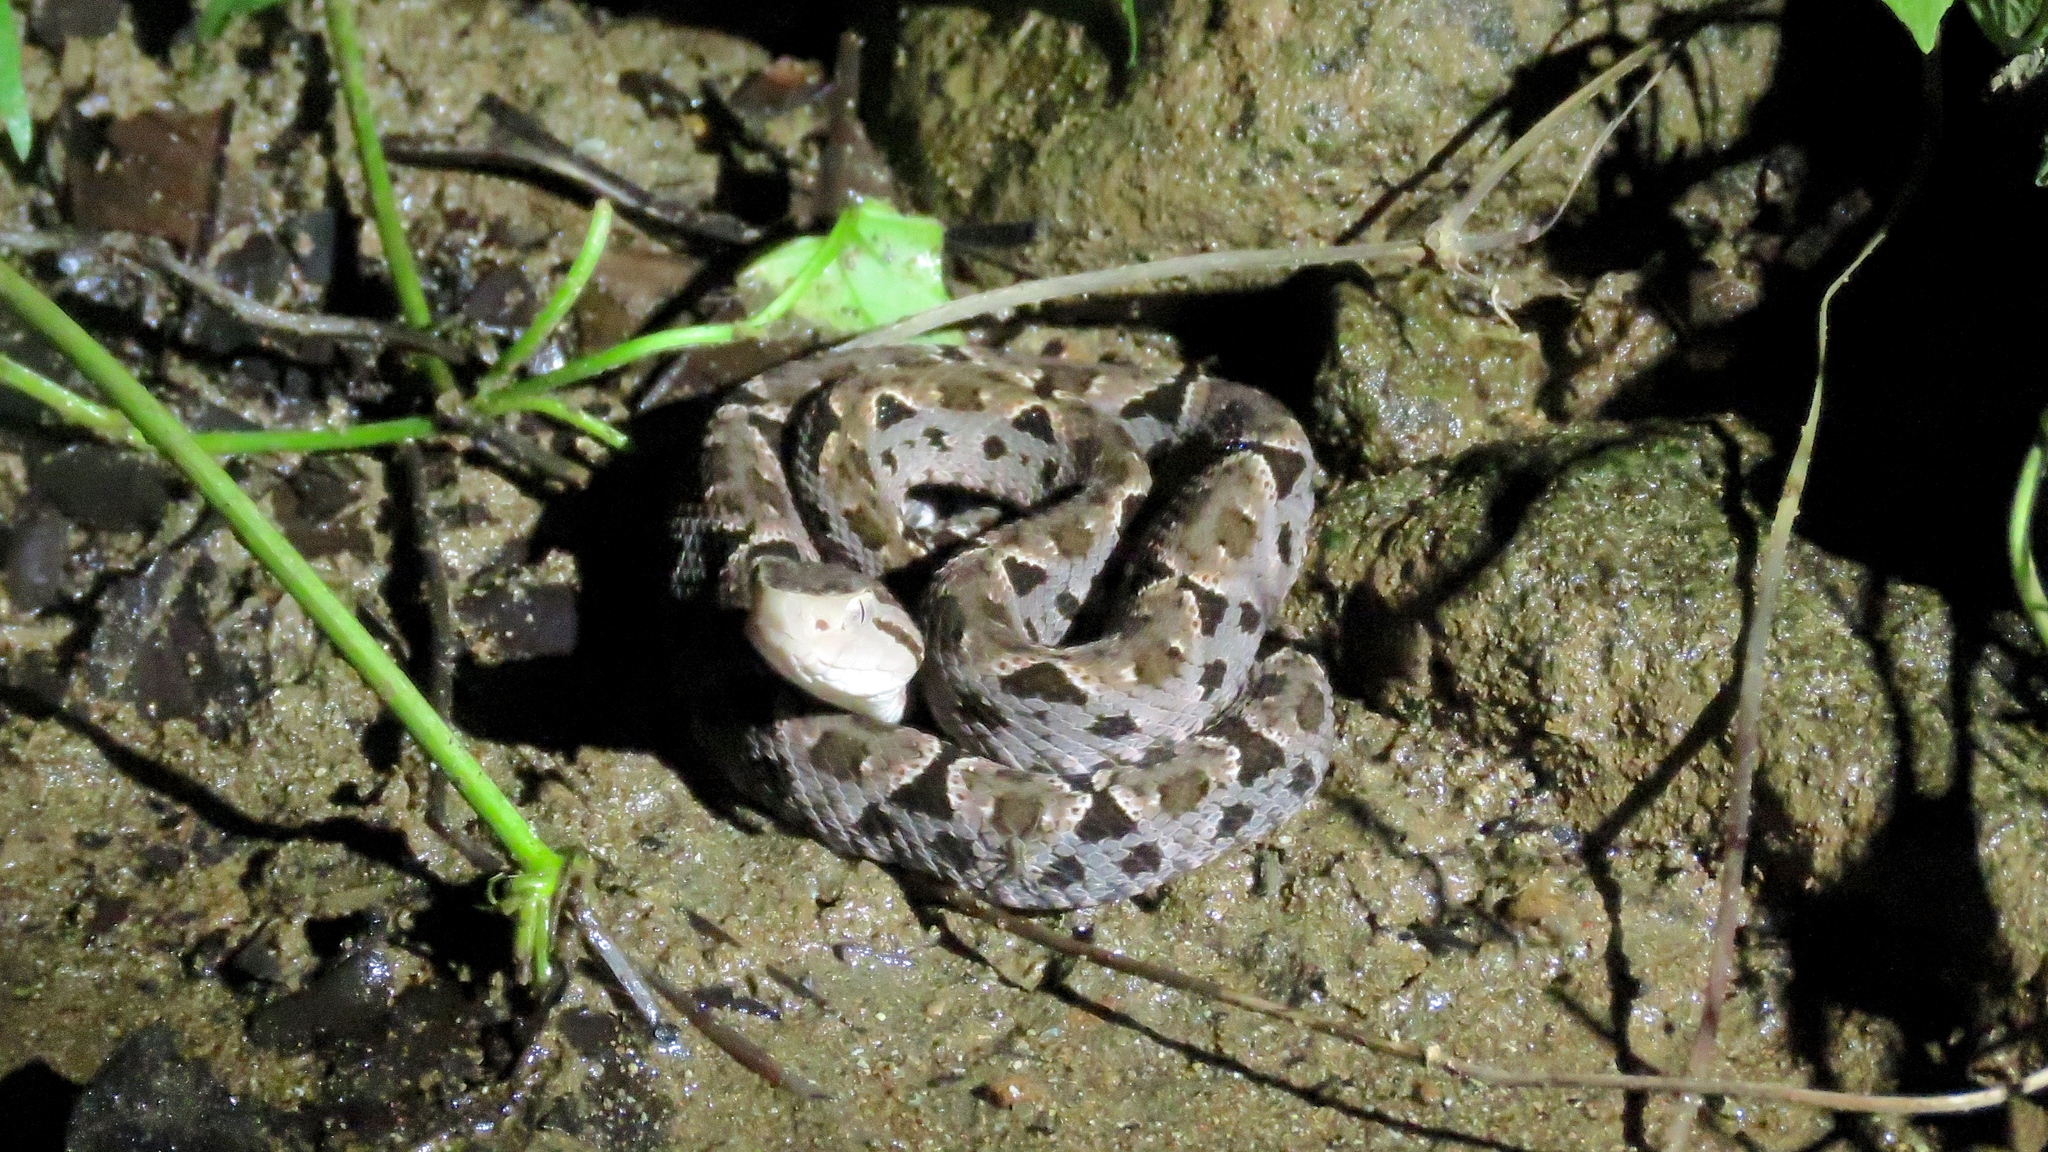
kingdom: Animalia
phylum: Chordata
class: Squamata
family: Viperidae
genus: Bothrops
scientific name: Bothrops asper
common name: Terciopelo
